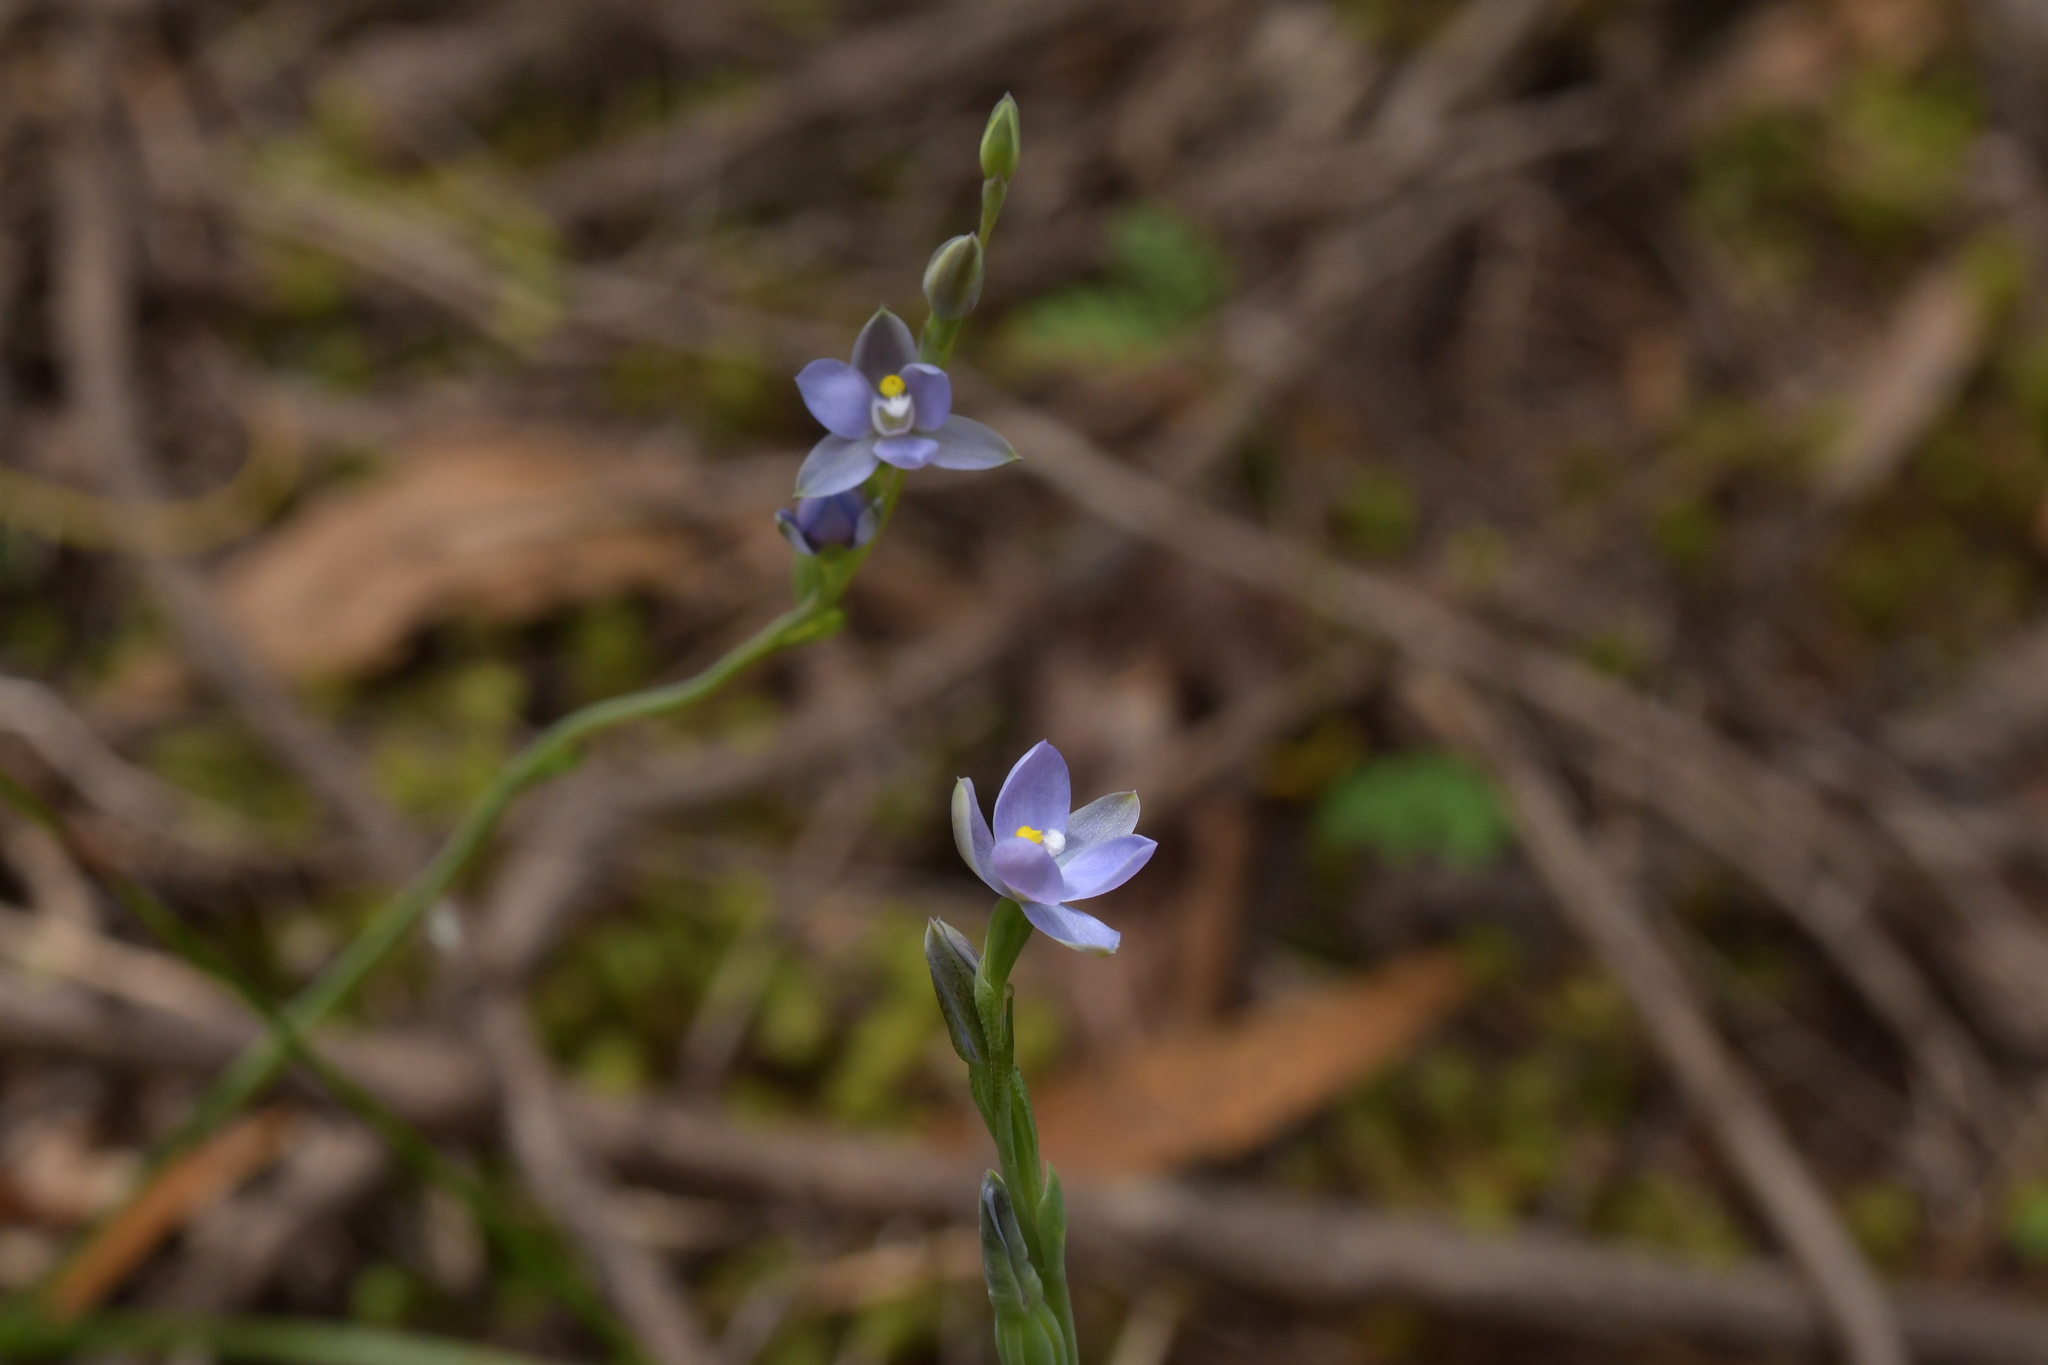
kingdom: Plantae
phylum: Tracheophyta
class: Liliopsida
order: Asparagales
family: Orchidaceae
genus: Thelymitra
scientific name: Thelymitra tholiformis
